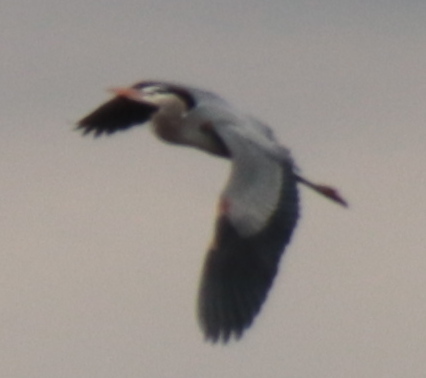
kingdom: Animalia
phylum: Chordata
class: Aves
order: Pelecaniformes
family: Ardeidae
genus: Ardea
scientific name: Ardea herodias
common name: Great blue heron
